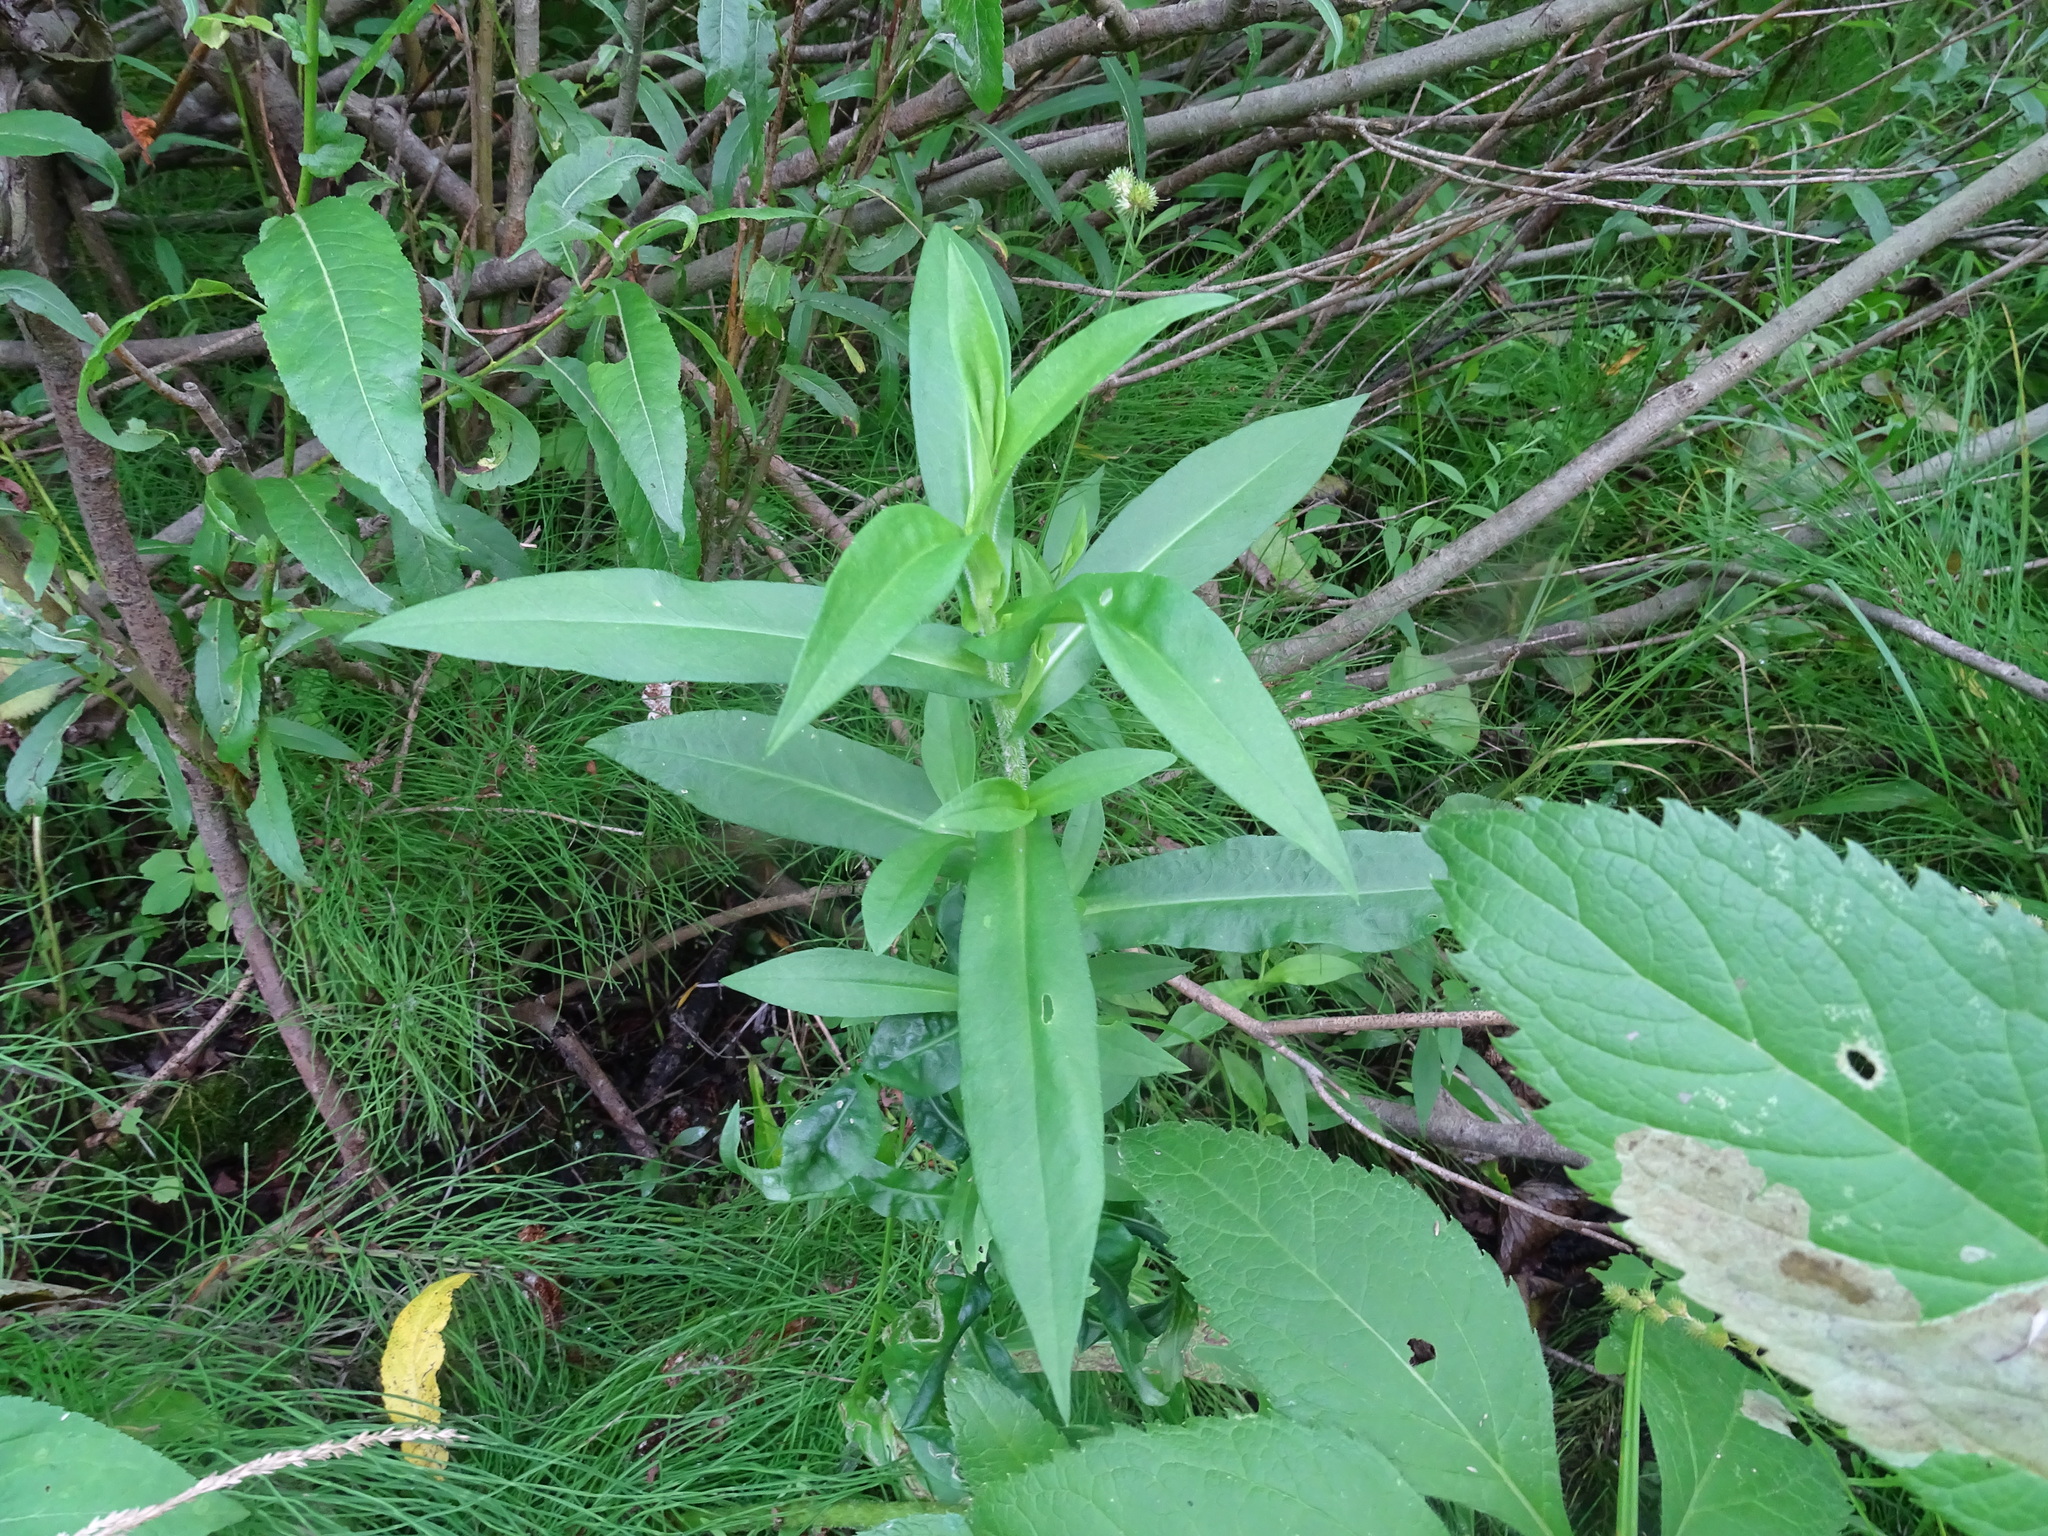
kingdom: Plantae
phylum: Tracheophyta
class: Magnoliopsida
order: Asterales
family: Asteraceae
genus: Symphyotrichum
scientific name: Symphyotrichum puniceum
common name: Bog aster
